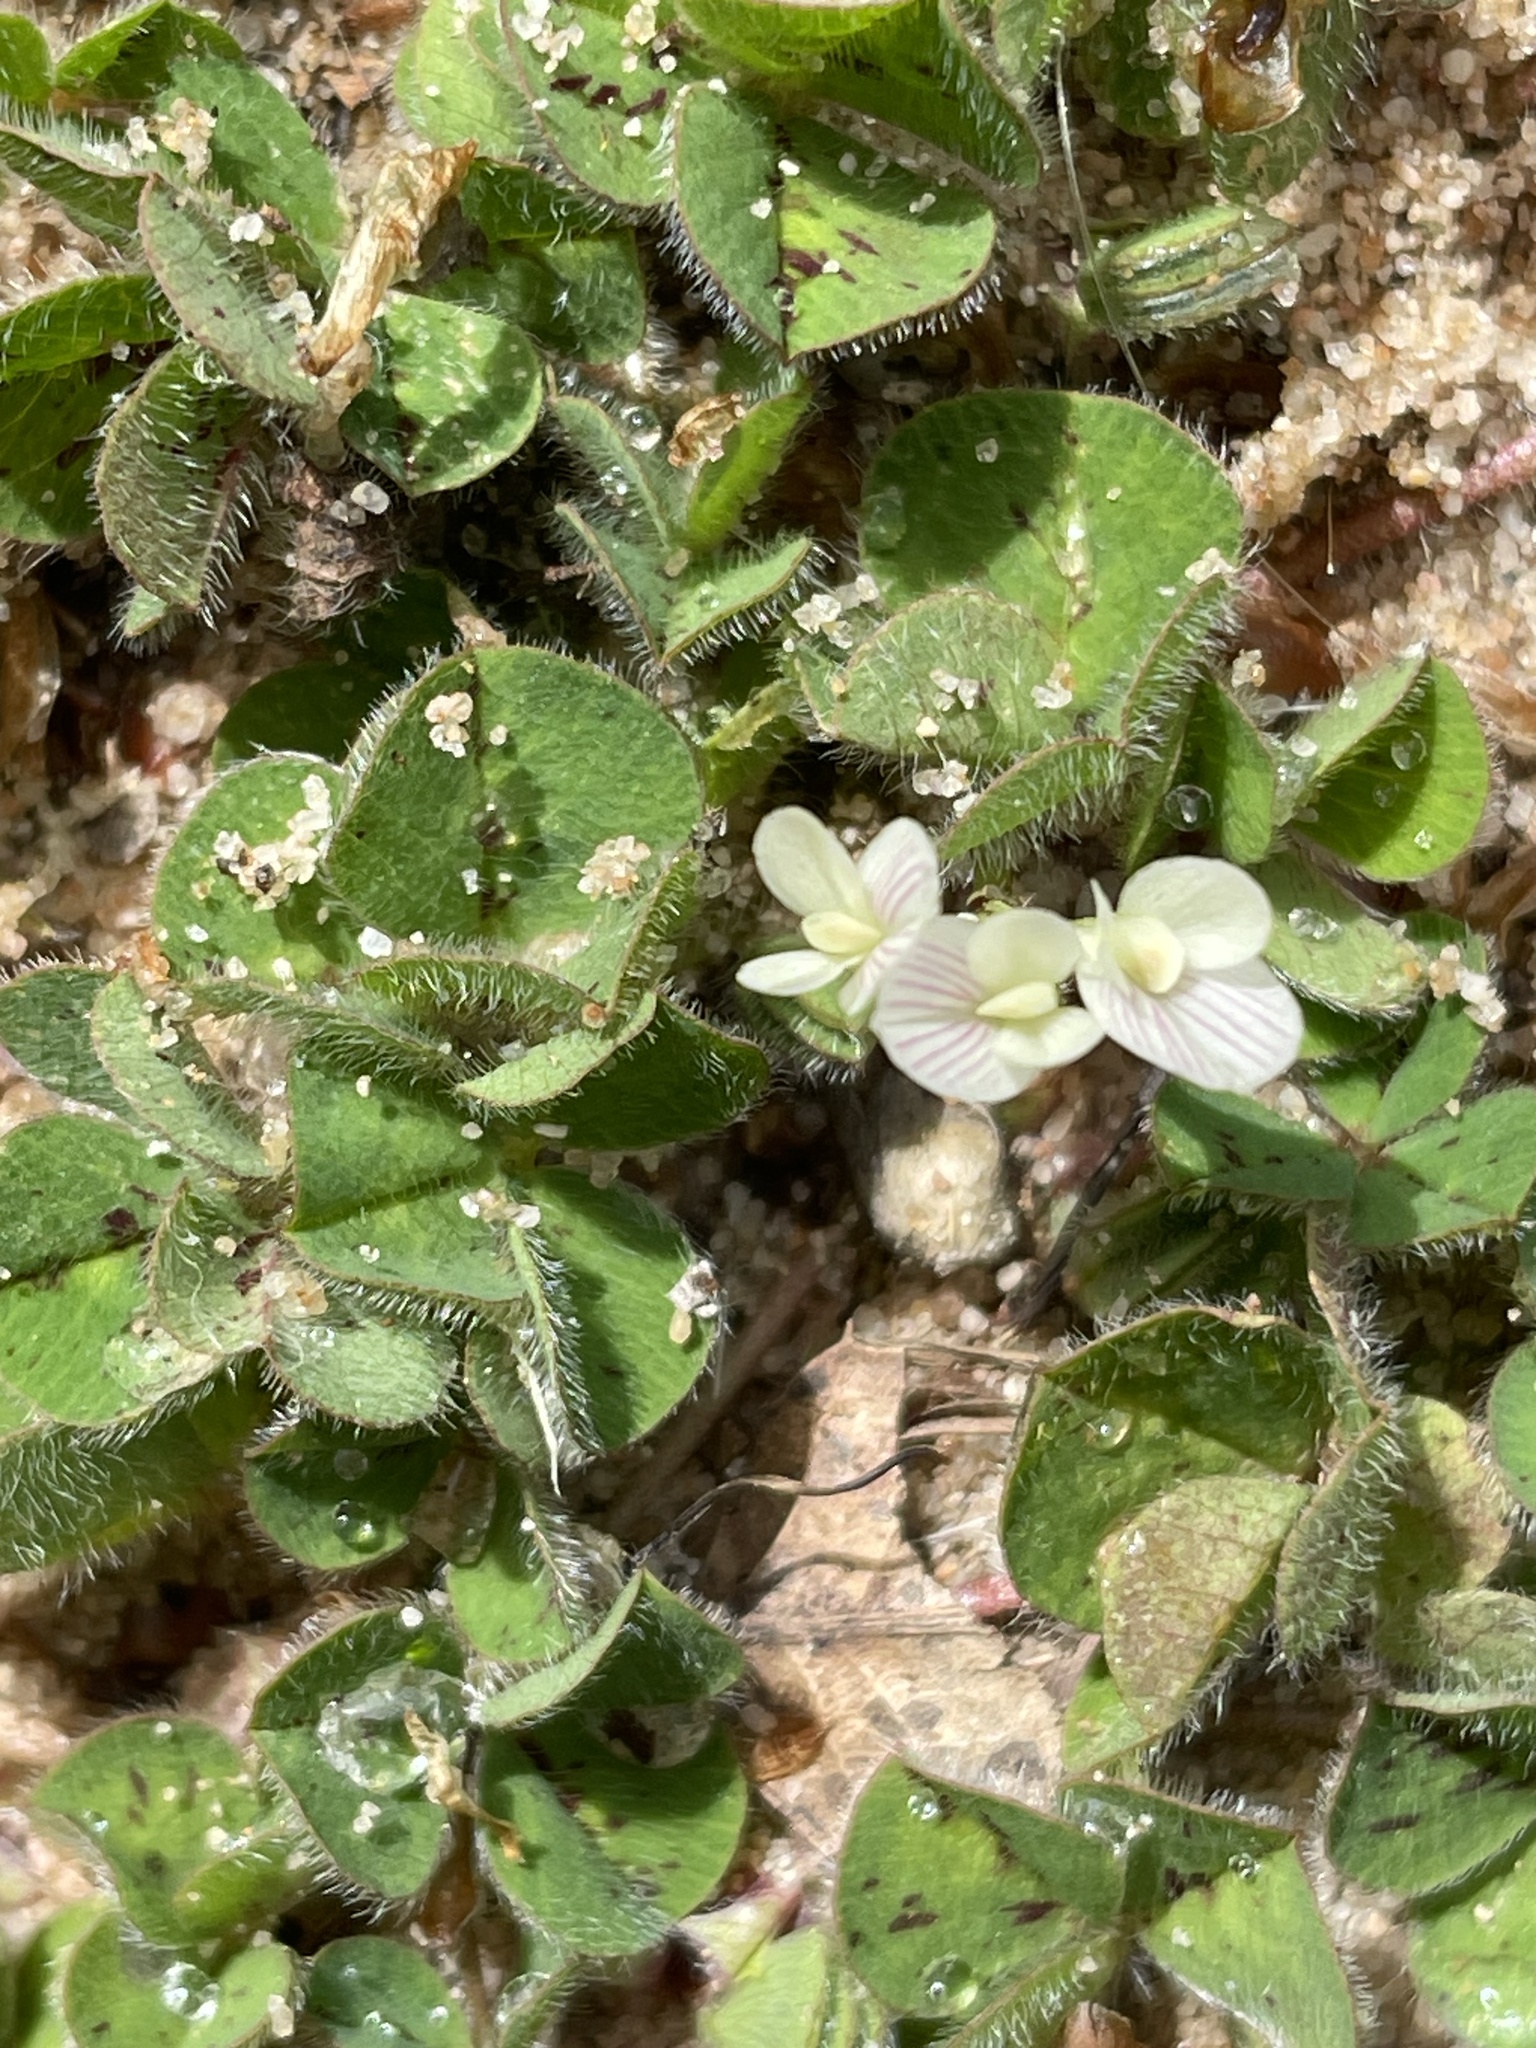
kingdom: Plantae
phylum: Tracheophyta
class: Magnoliopsida
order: Fabales
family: Fabaceae
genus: Trifolium
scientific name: Trifolium subterraneum
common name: Subterranean clover
